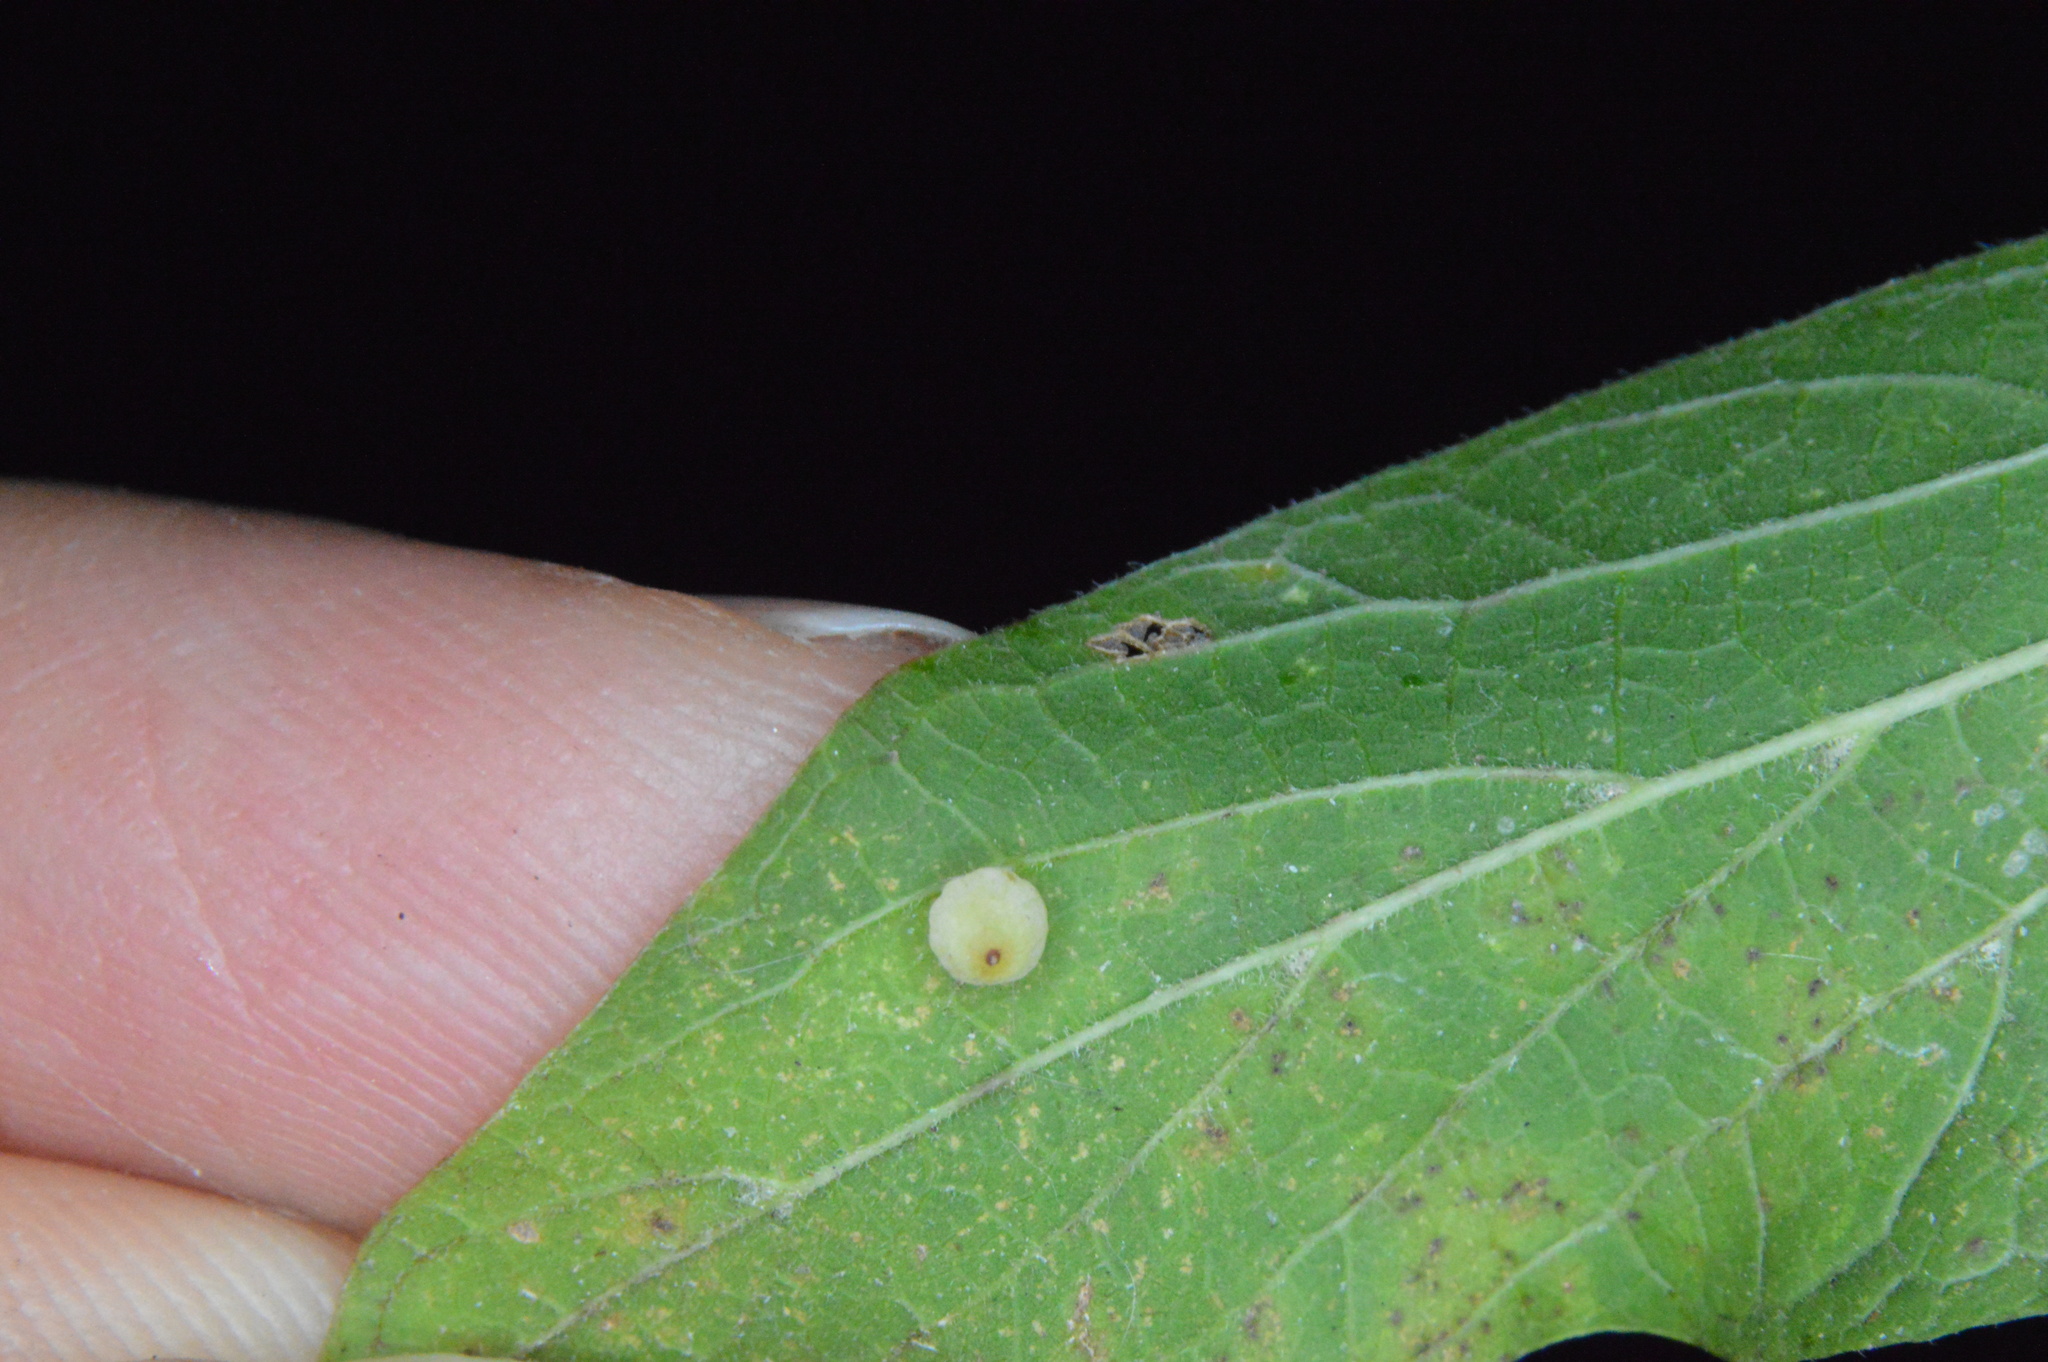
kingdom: Animalia
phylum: Arthropoda
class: Insecta
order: Diptera
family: Cecidomyiidae
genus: Celticecis
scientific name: Celticecis globosa
